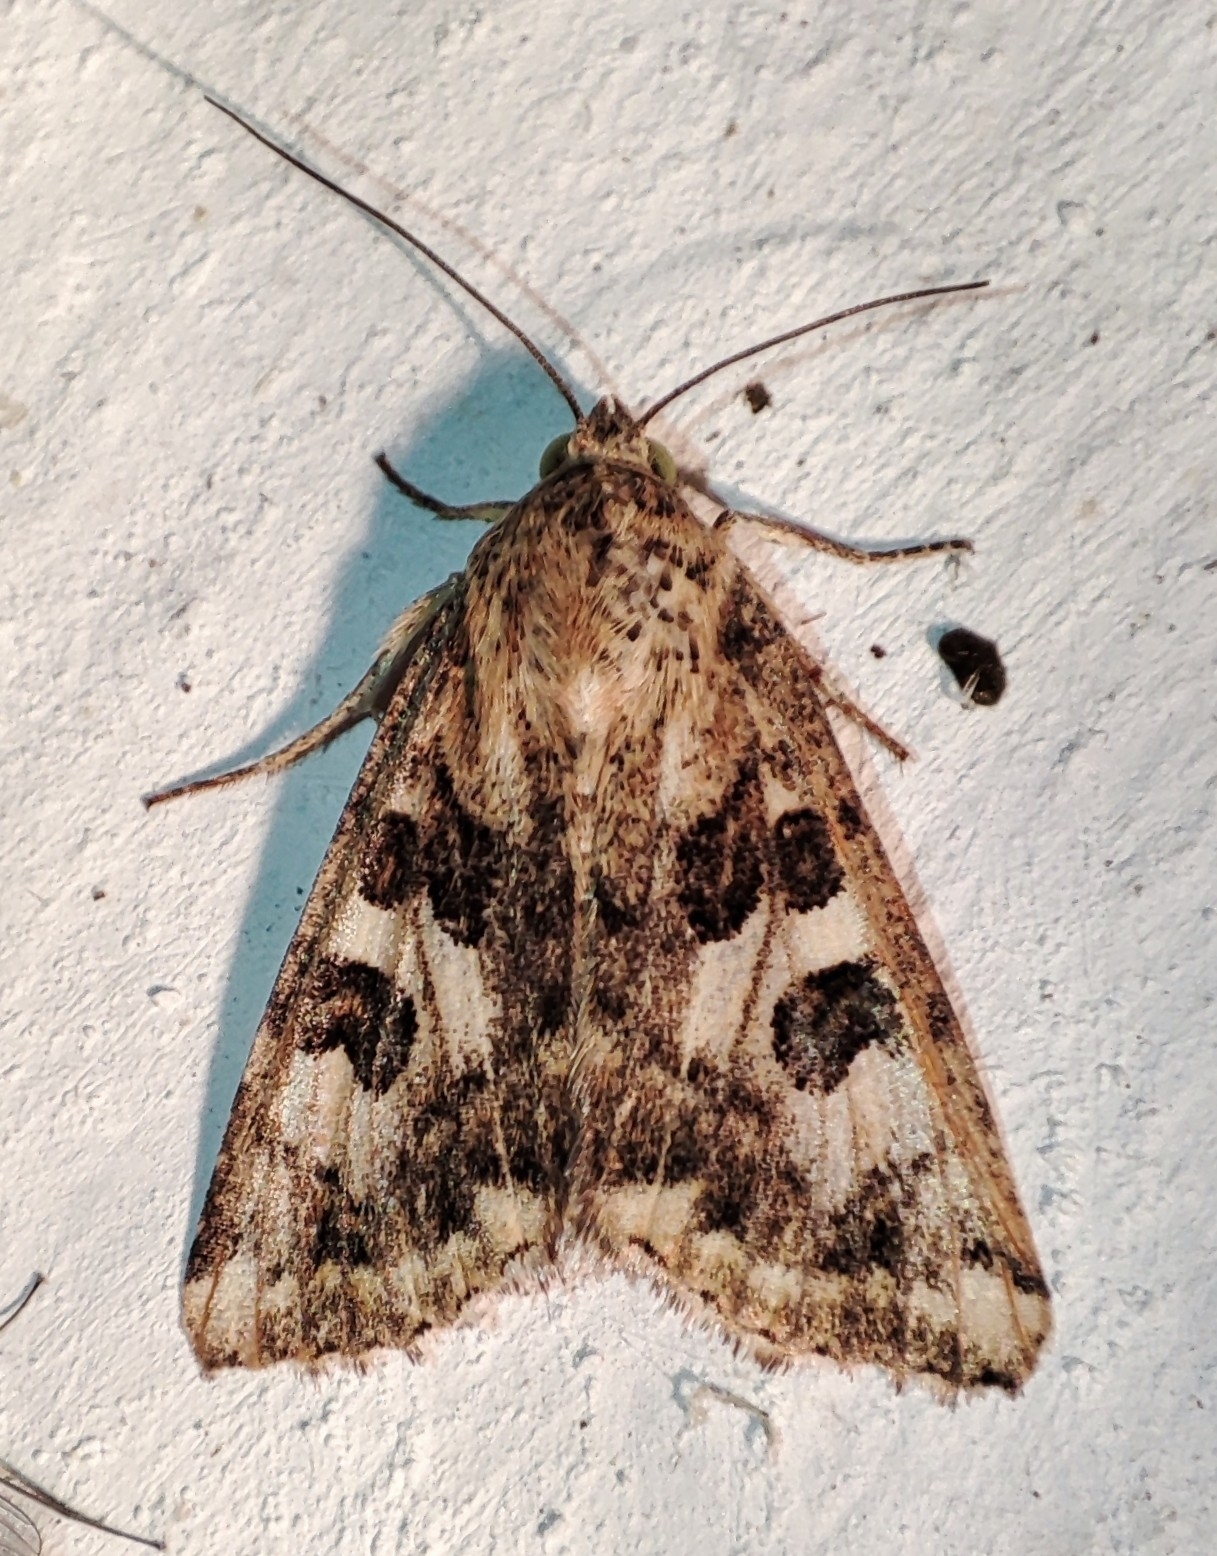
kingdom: Animalia
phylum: Arthropoda
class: Insecta
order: Lepidoptera
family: Noctuidae
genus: Protoschinia
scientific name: Protoschinia scutosa
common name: Spotted clover
